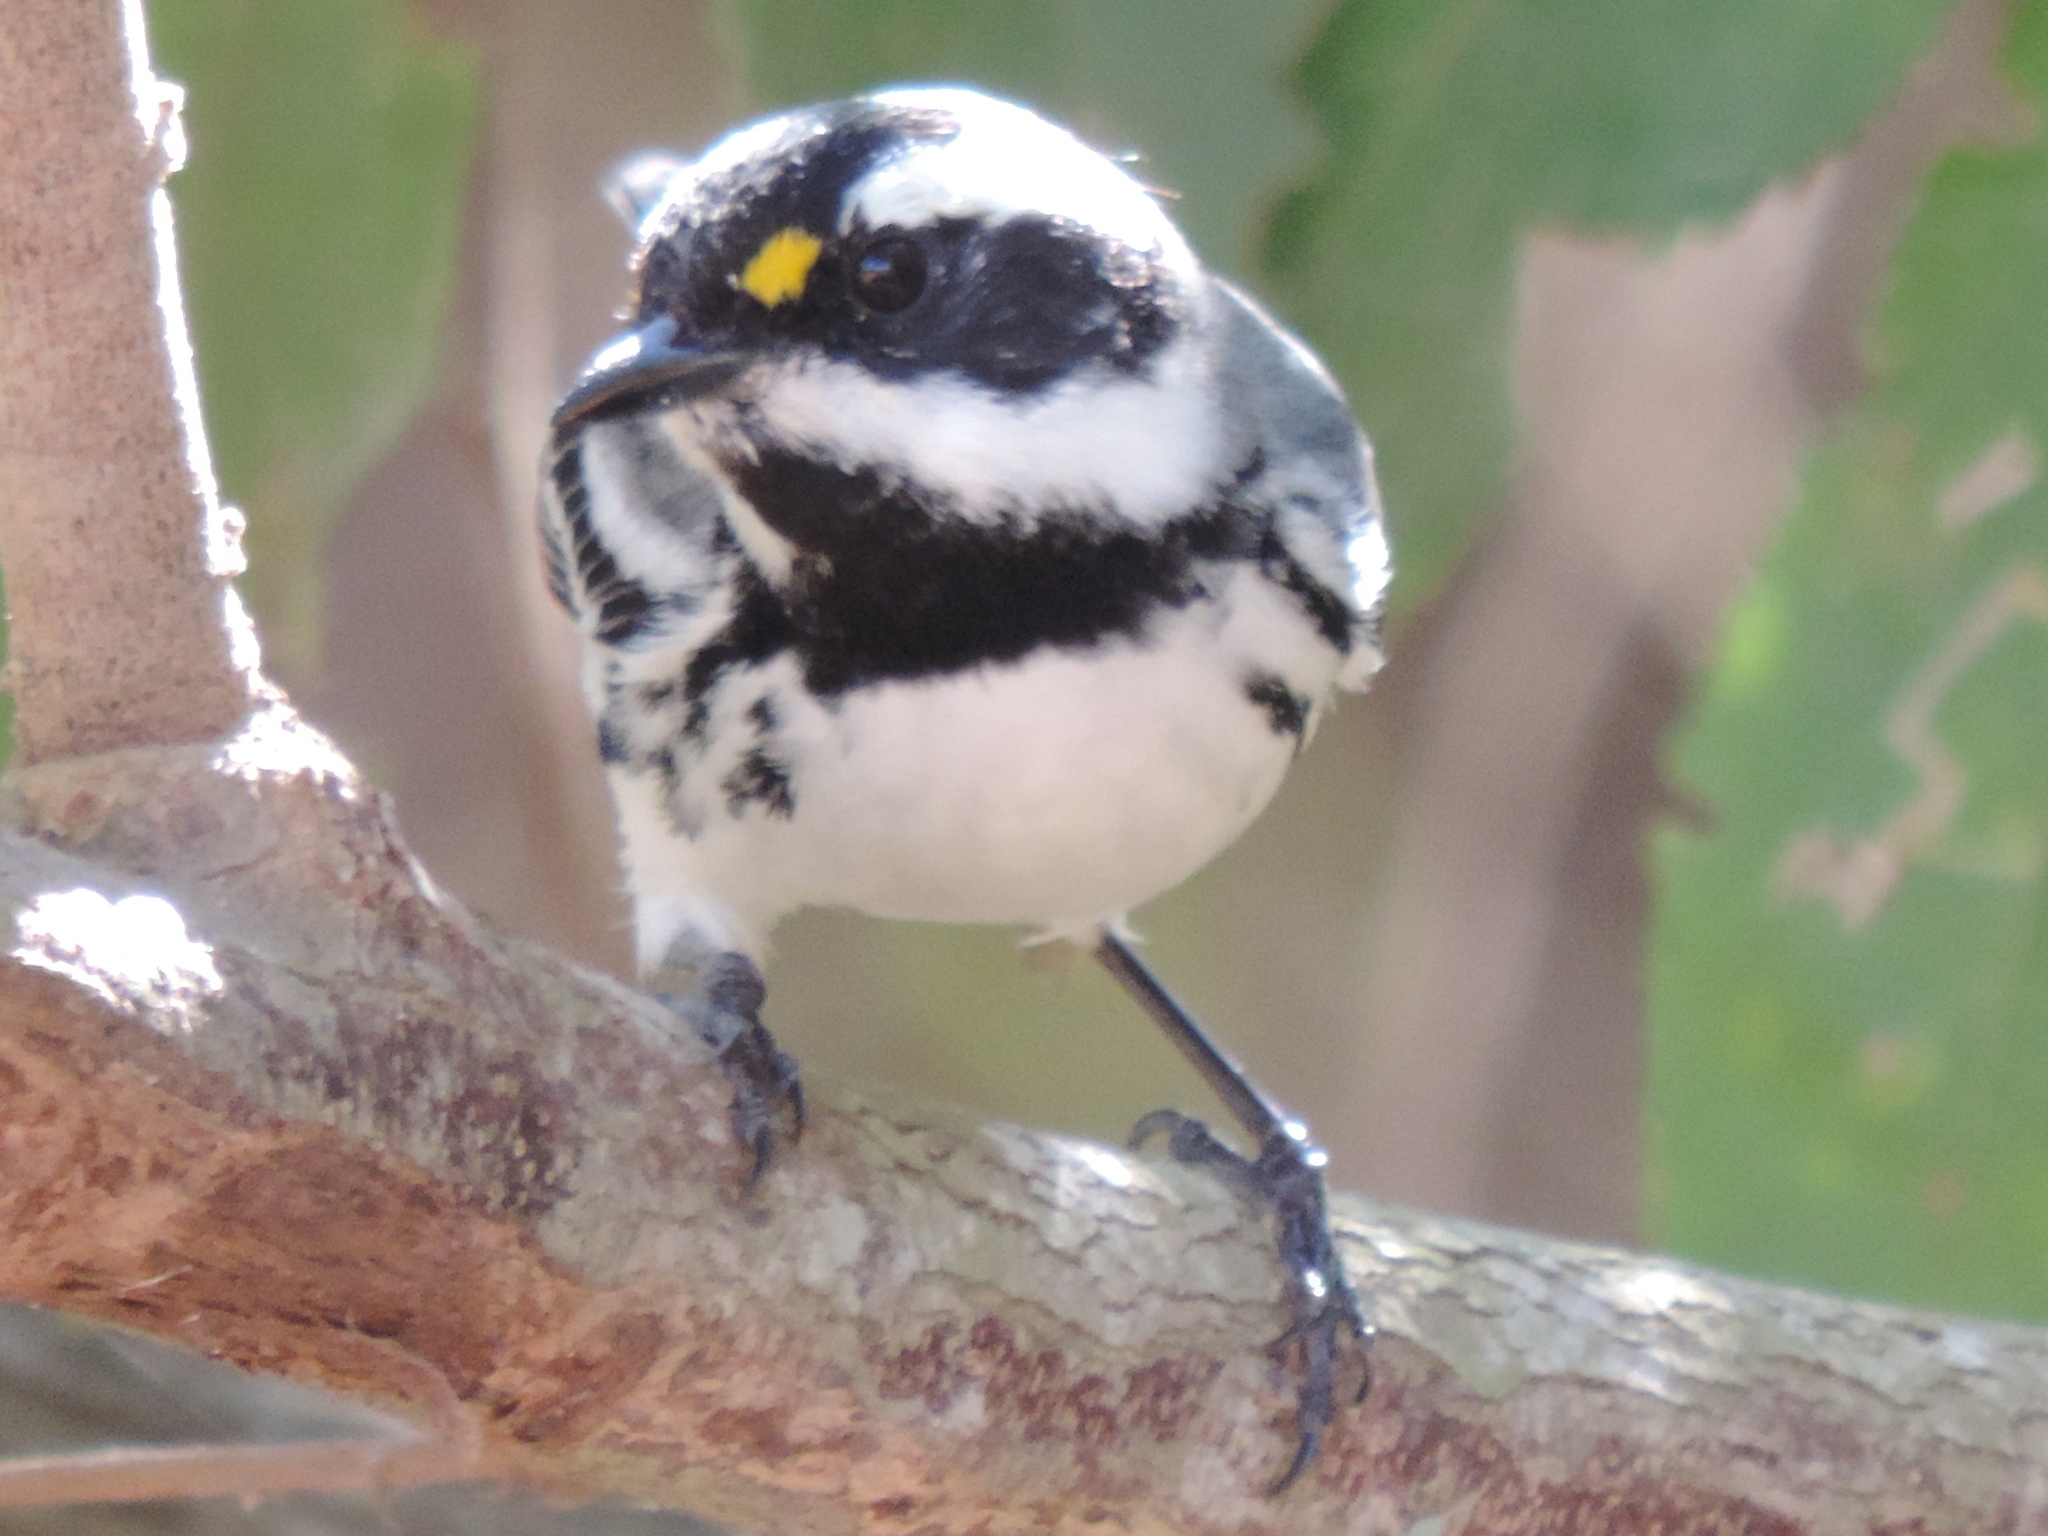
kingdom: Animalia
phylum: Chordata
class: Aves
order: Passeriformes
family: Parulidae
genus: Setophaga
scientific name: Setophaga nigrescens
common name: Black-throated gray warbler
